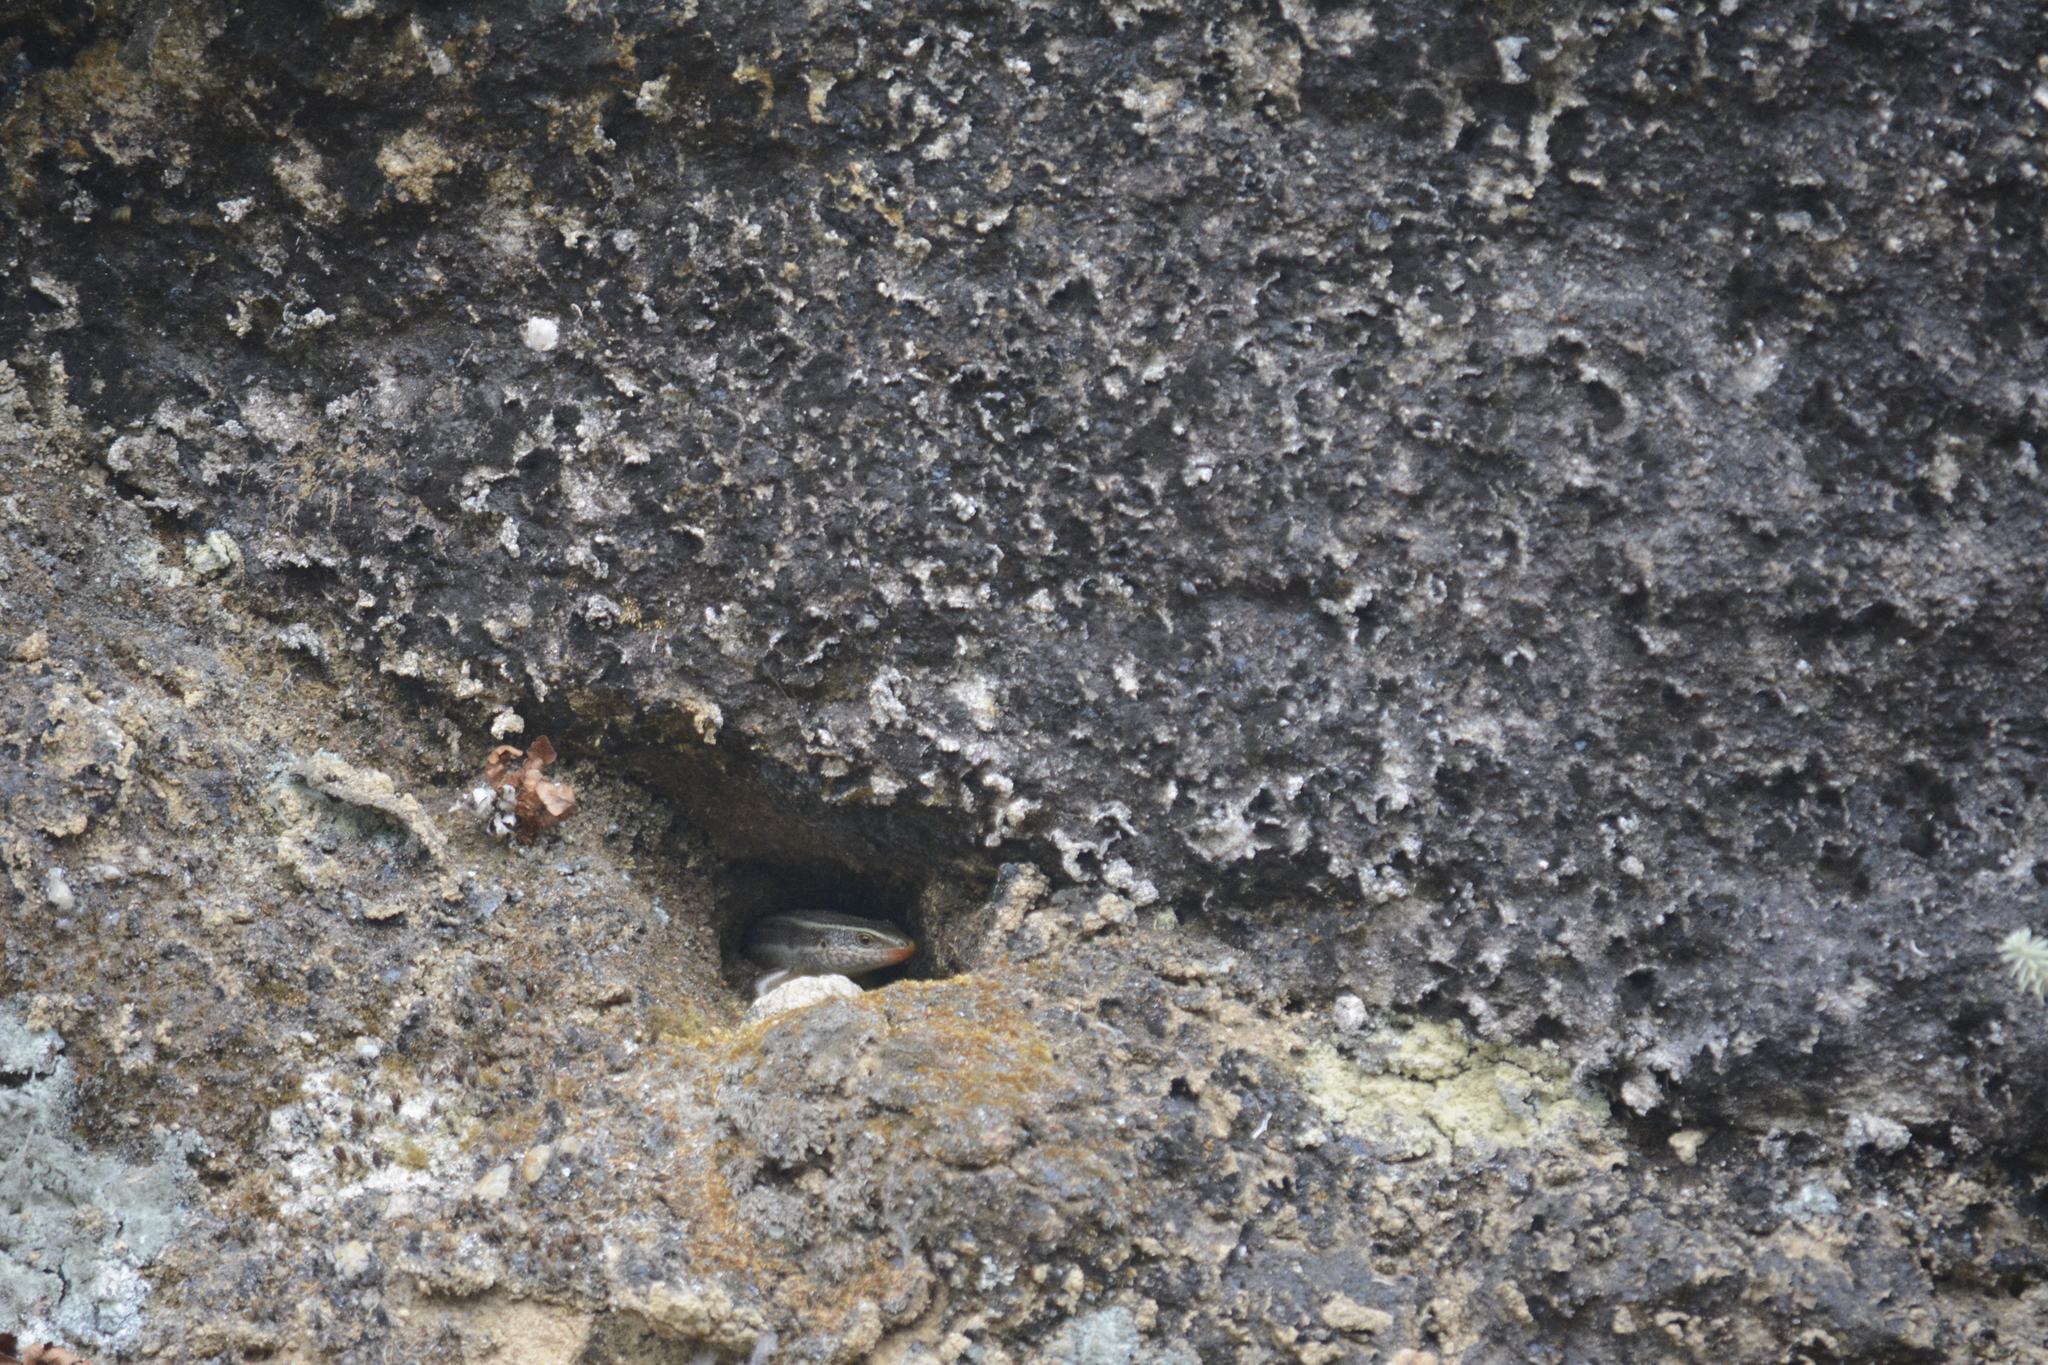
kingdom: Animalia
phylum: Chordata
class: Squamata
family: Scincidae
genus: Eutropis
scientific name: Eutropis carinata
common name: Keeled indian mabuya
